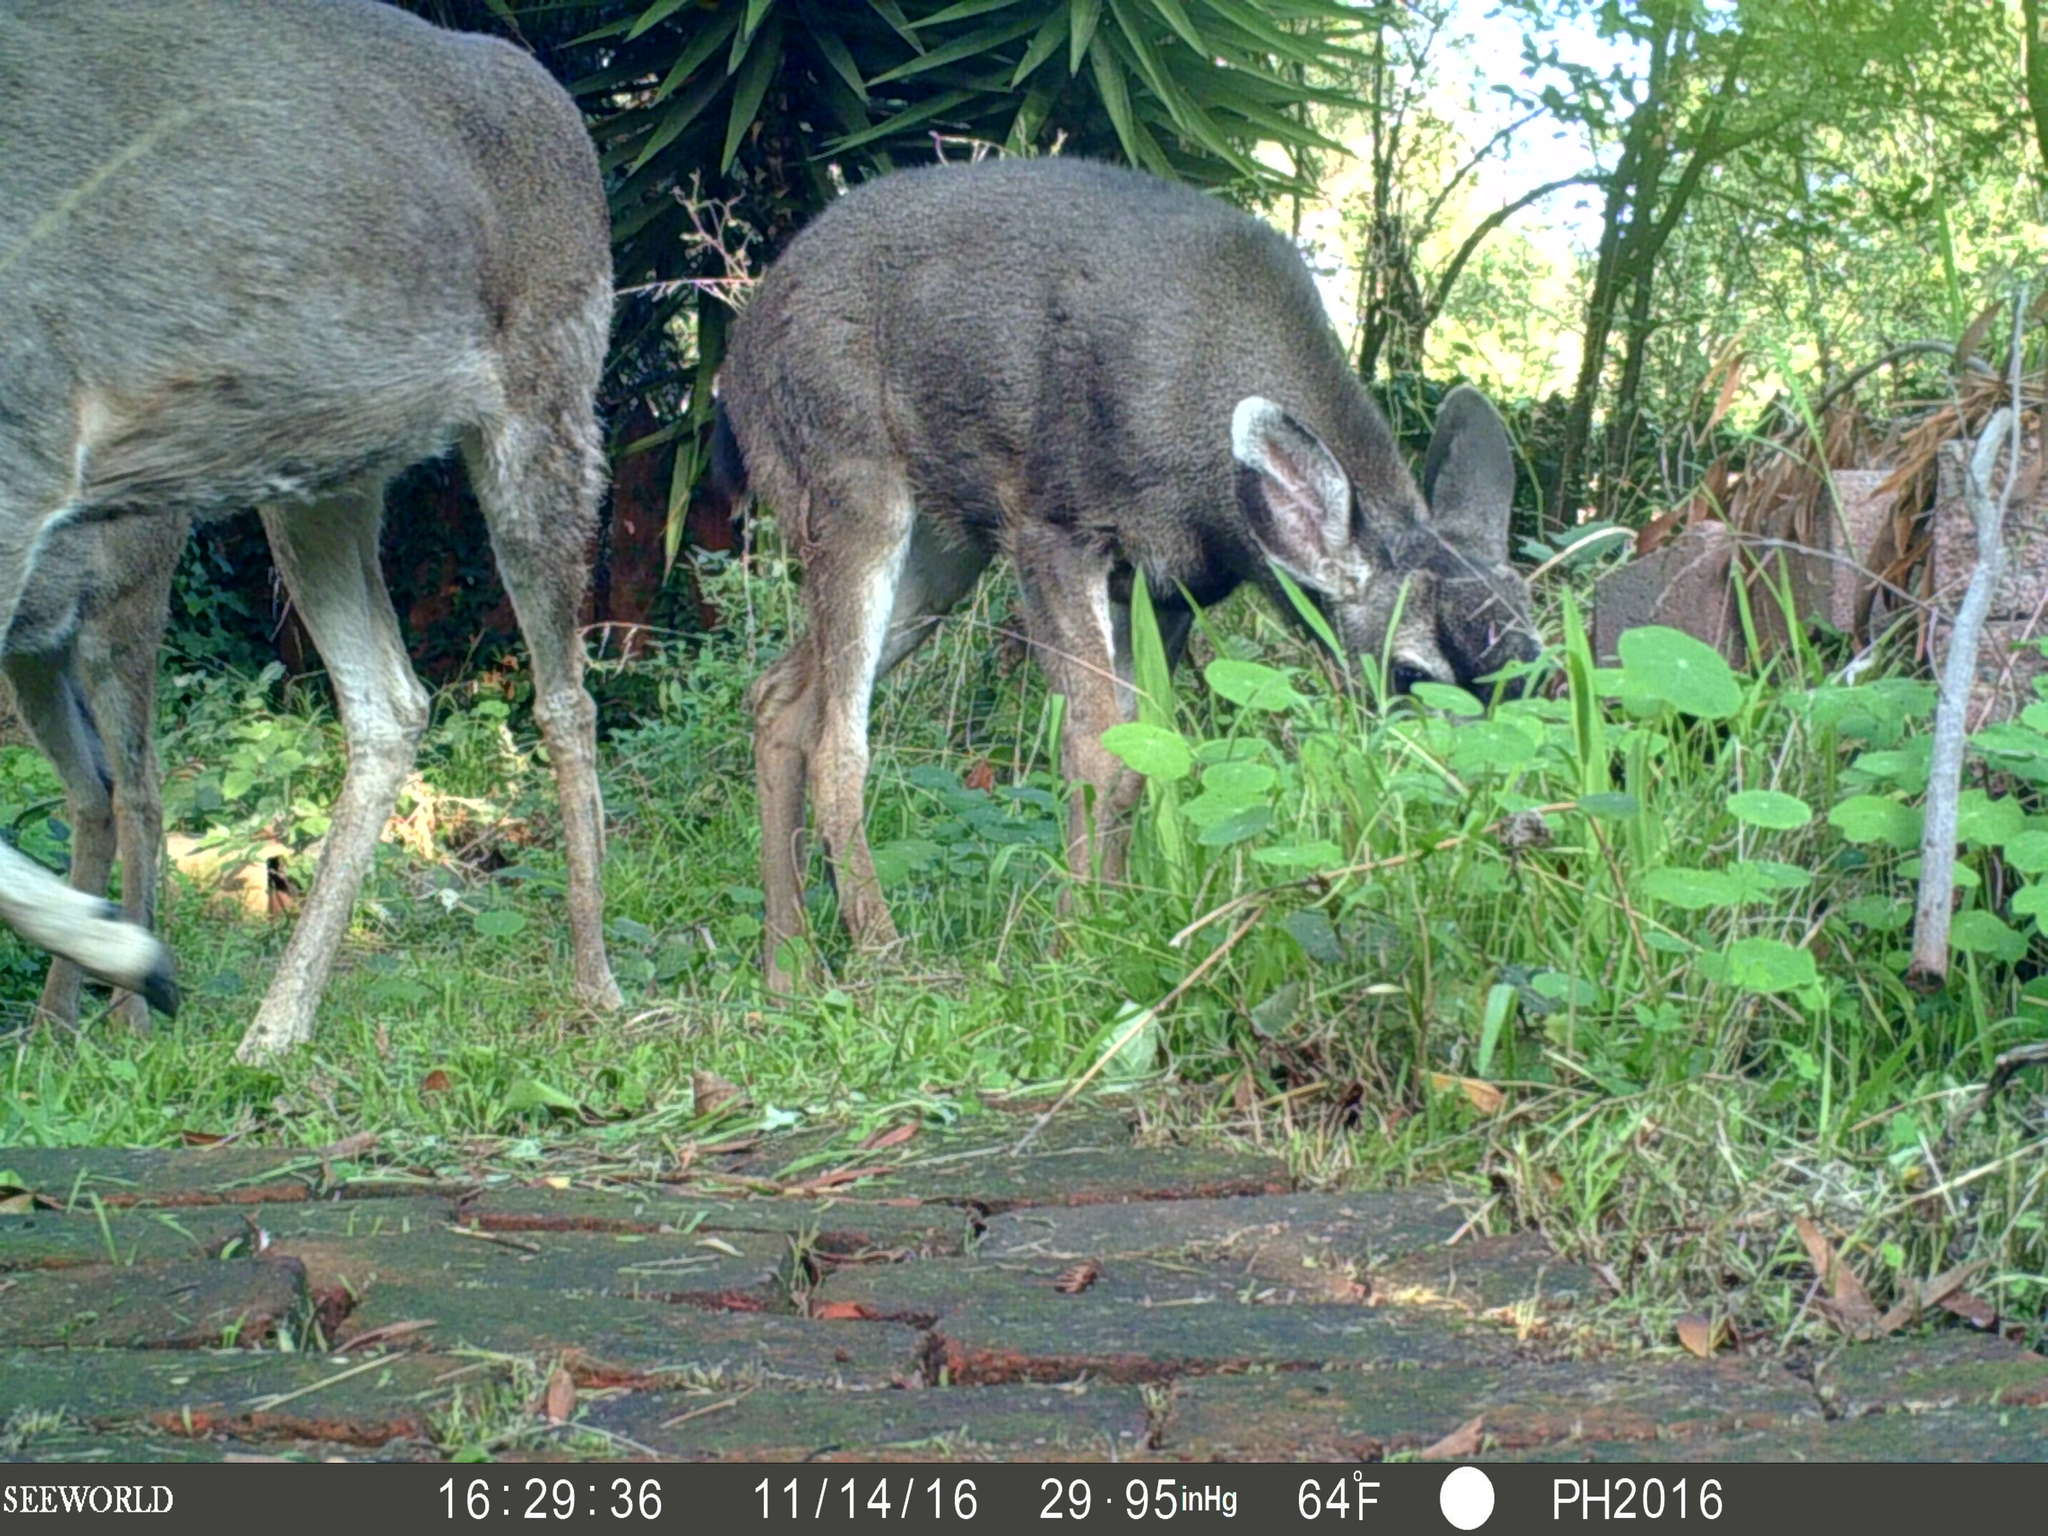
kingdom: Animalia
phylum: Chordata
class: Mammalia
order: Artiodactyla
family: Cervidae
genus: Odocoileus
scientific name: Odocoileus hemionus
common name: Mule deer
